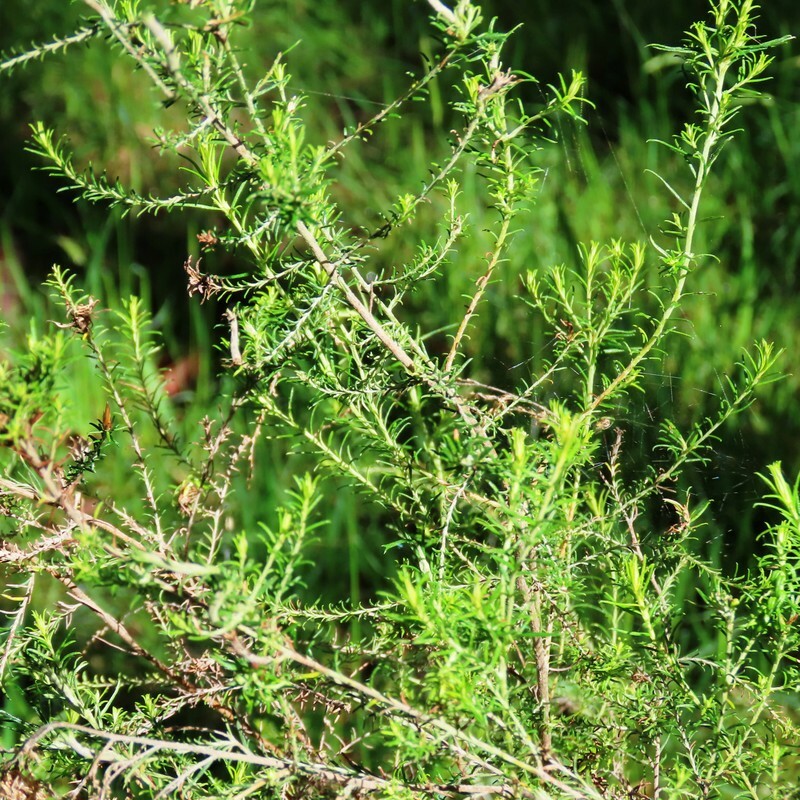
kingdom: Plantae
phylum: Tracheophyta
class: Magnoliopsida
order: Asterales
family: Asteraceae
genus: Cassinia
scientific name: Cassinia sifton
